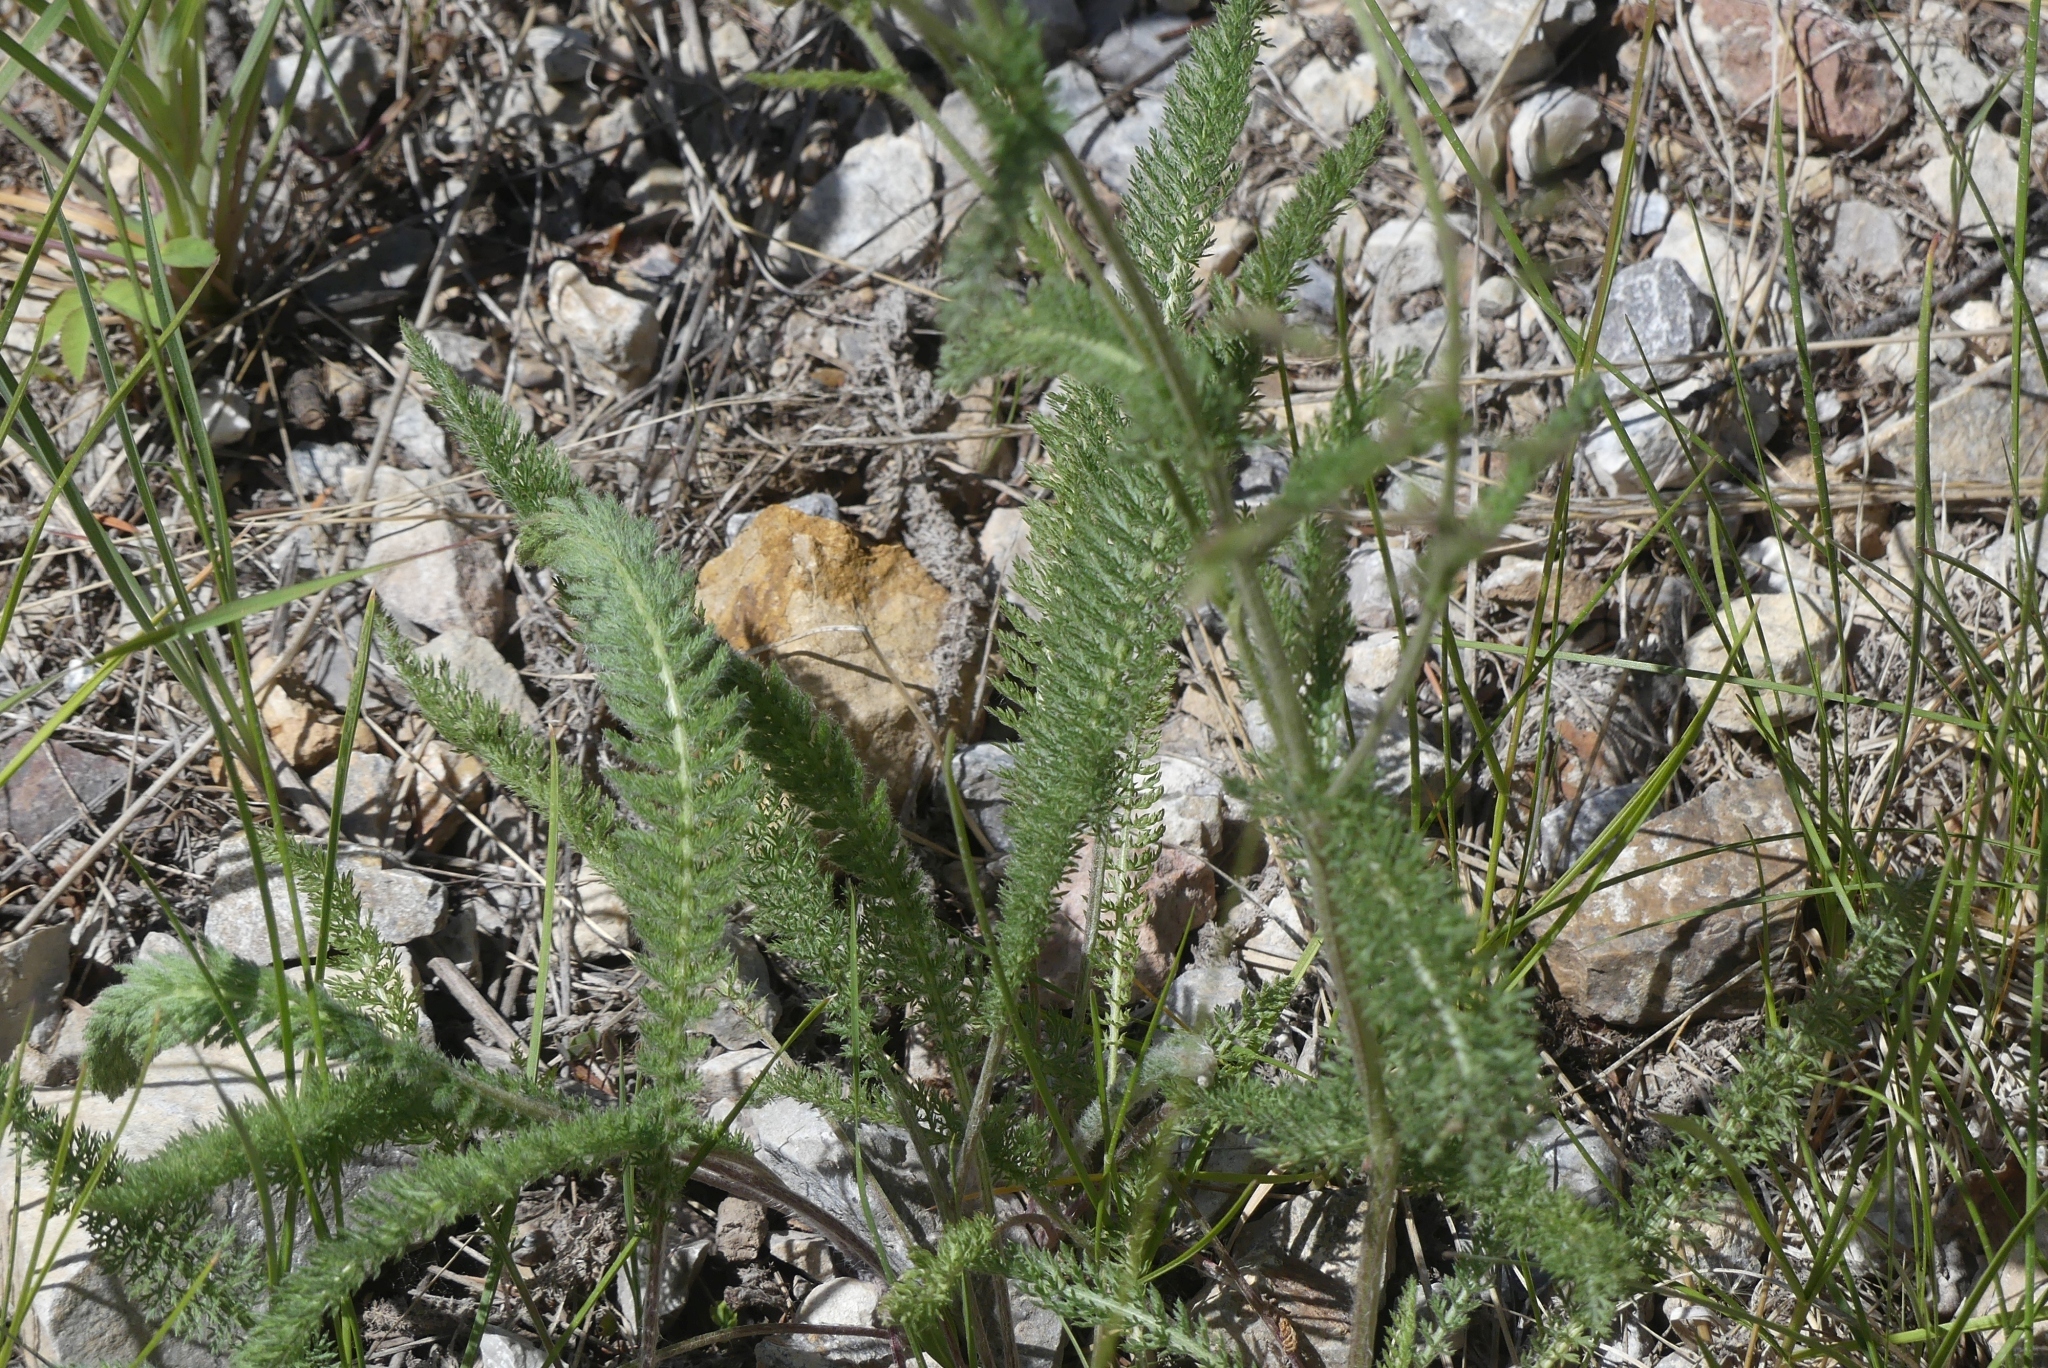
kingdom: Plantae
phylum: Tracheophyta
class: Magnoliopsida
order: Asterales
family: Asteraceae
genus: Achillea
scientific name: Achillea millefolium
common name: Yarrow
